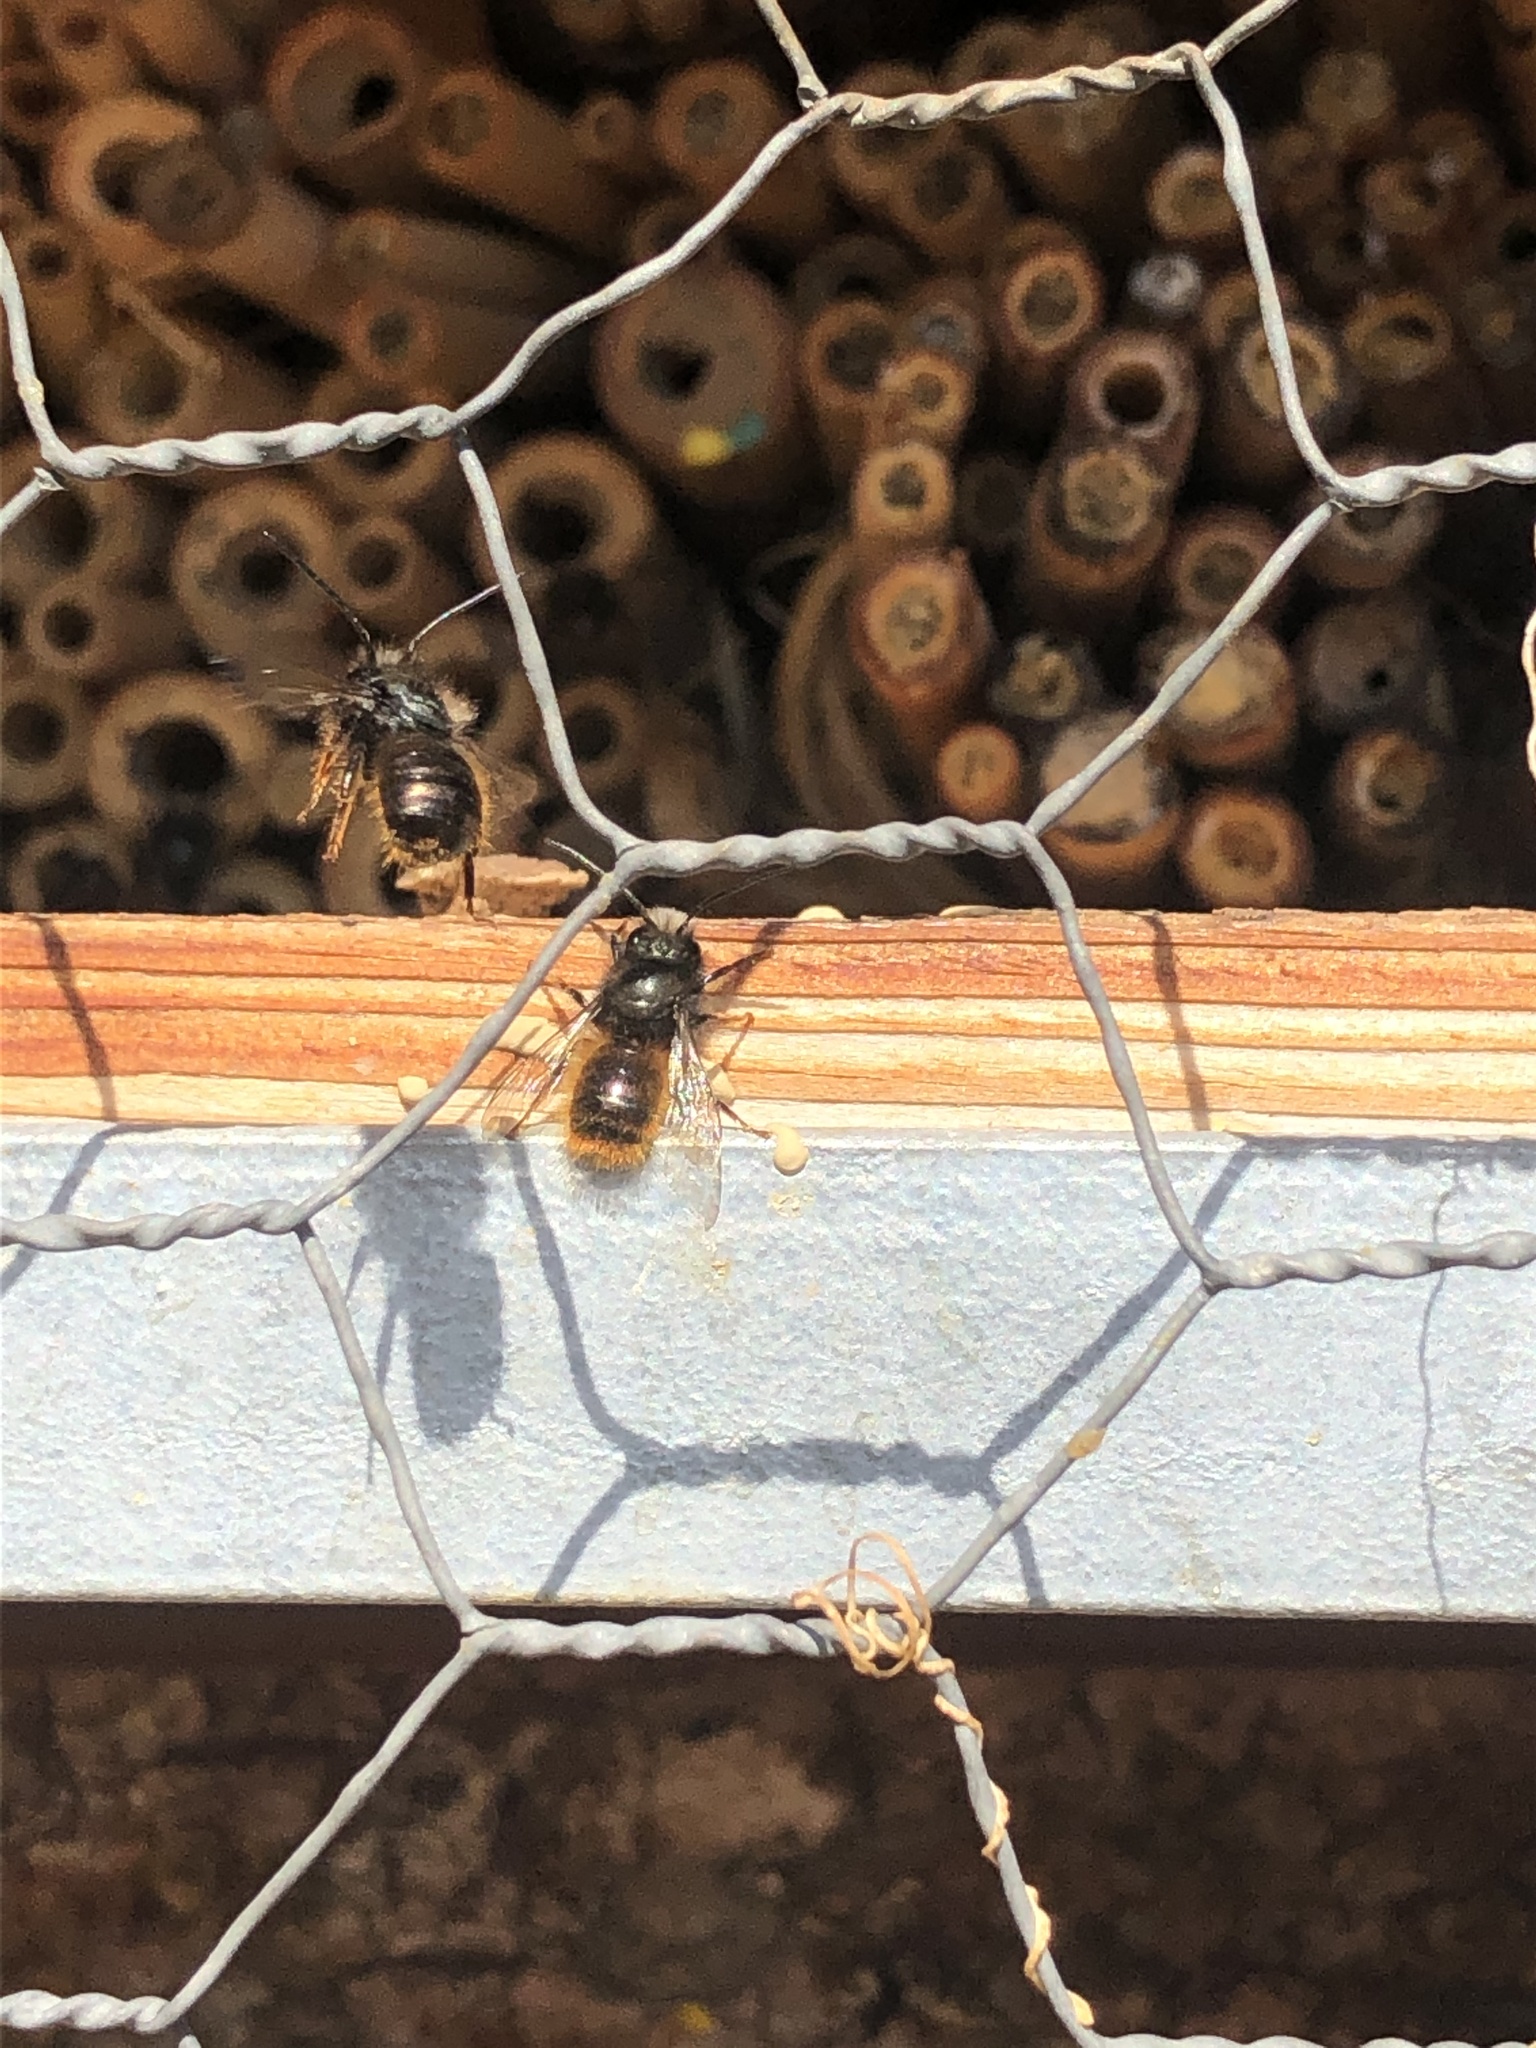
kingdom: Animalia
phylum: Arthropoda
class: Insecta
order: Hymenoptera
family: Megachilidae
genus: Osmia
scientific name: Osmia cornuta
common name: Mason bee
